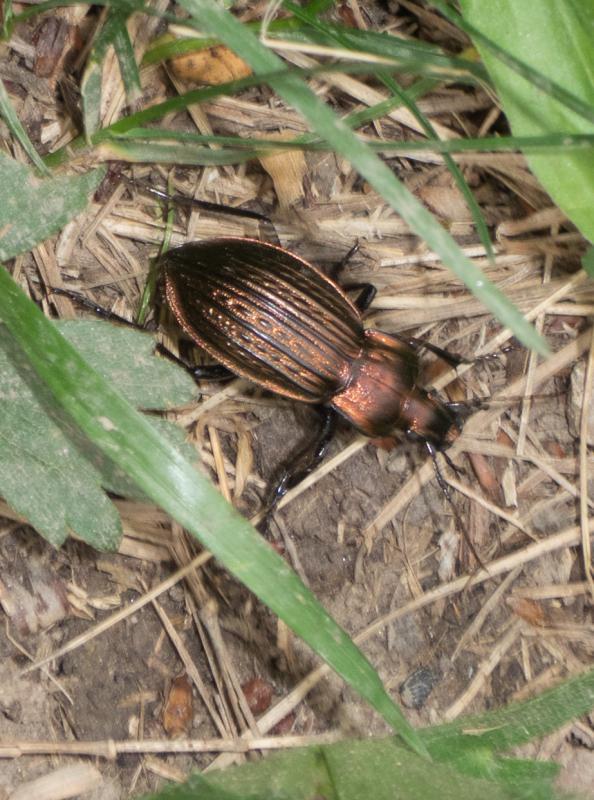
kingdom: Animalia
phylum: Arthropoda
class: Insecta
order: Coleoptera
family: Carabidae
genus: Carabus
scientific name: Carabus ulrichii
